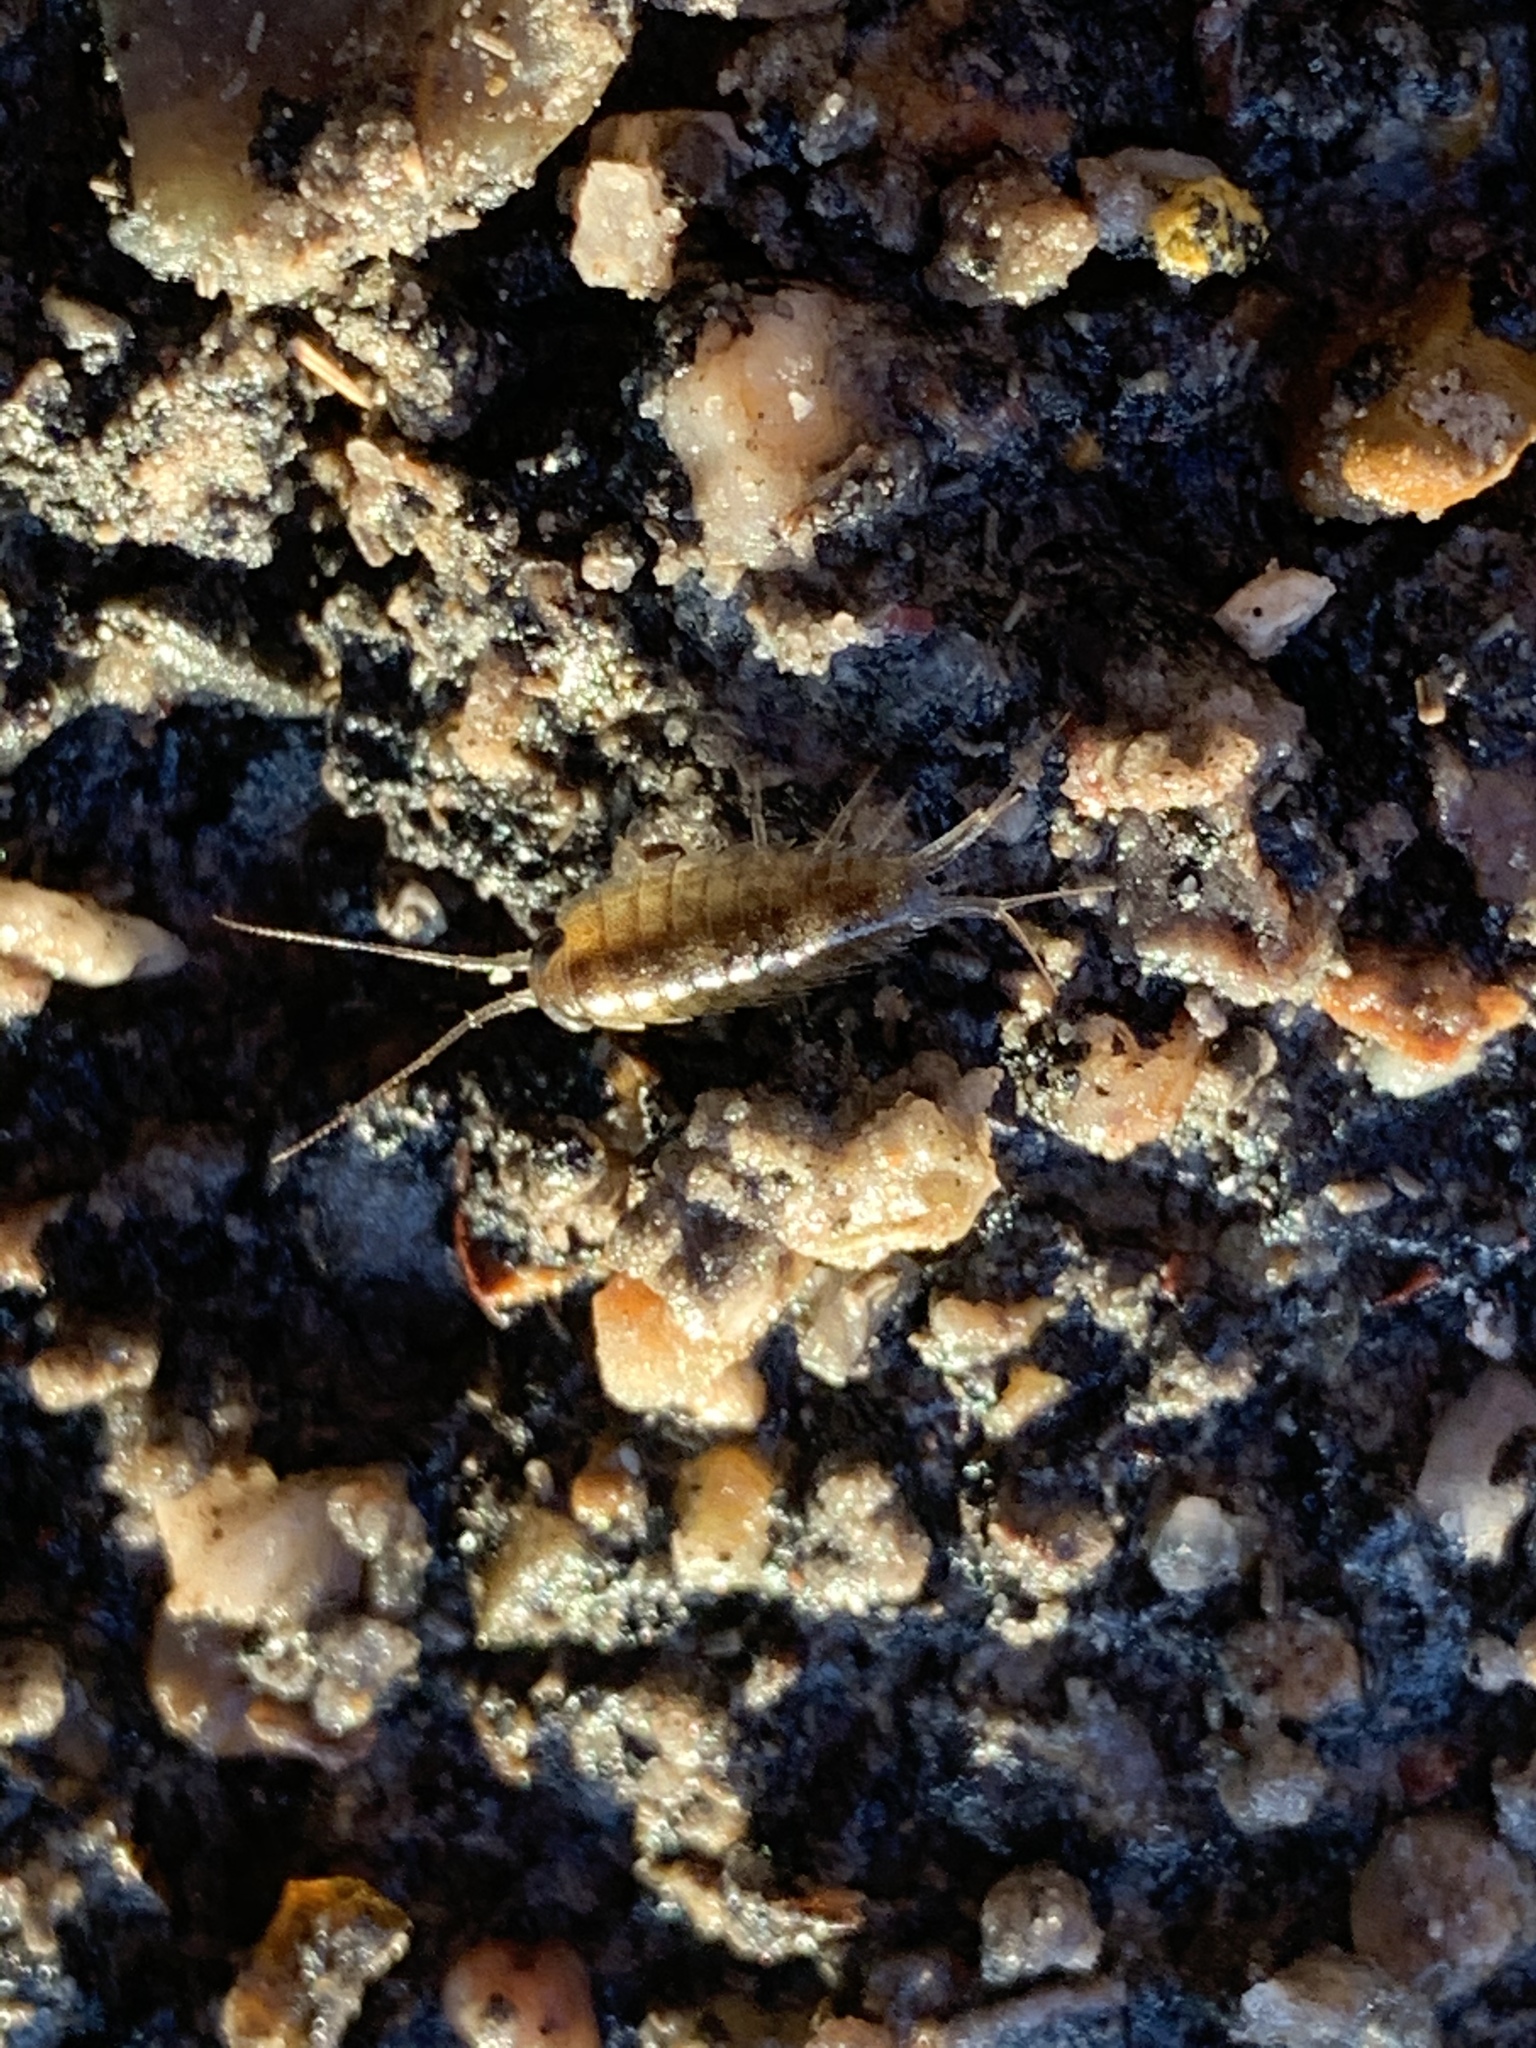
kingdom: Animalia
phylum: Arthropoda
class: Malacostraca
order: Isopoda
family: Ligiidae
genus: Ligia
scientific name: Ligia exotica
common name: Wharf roach
